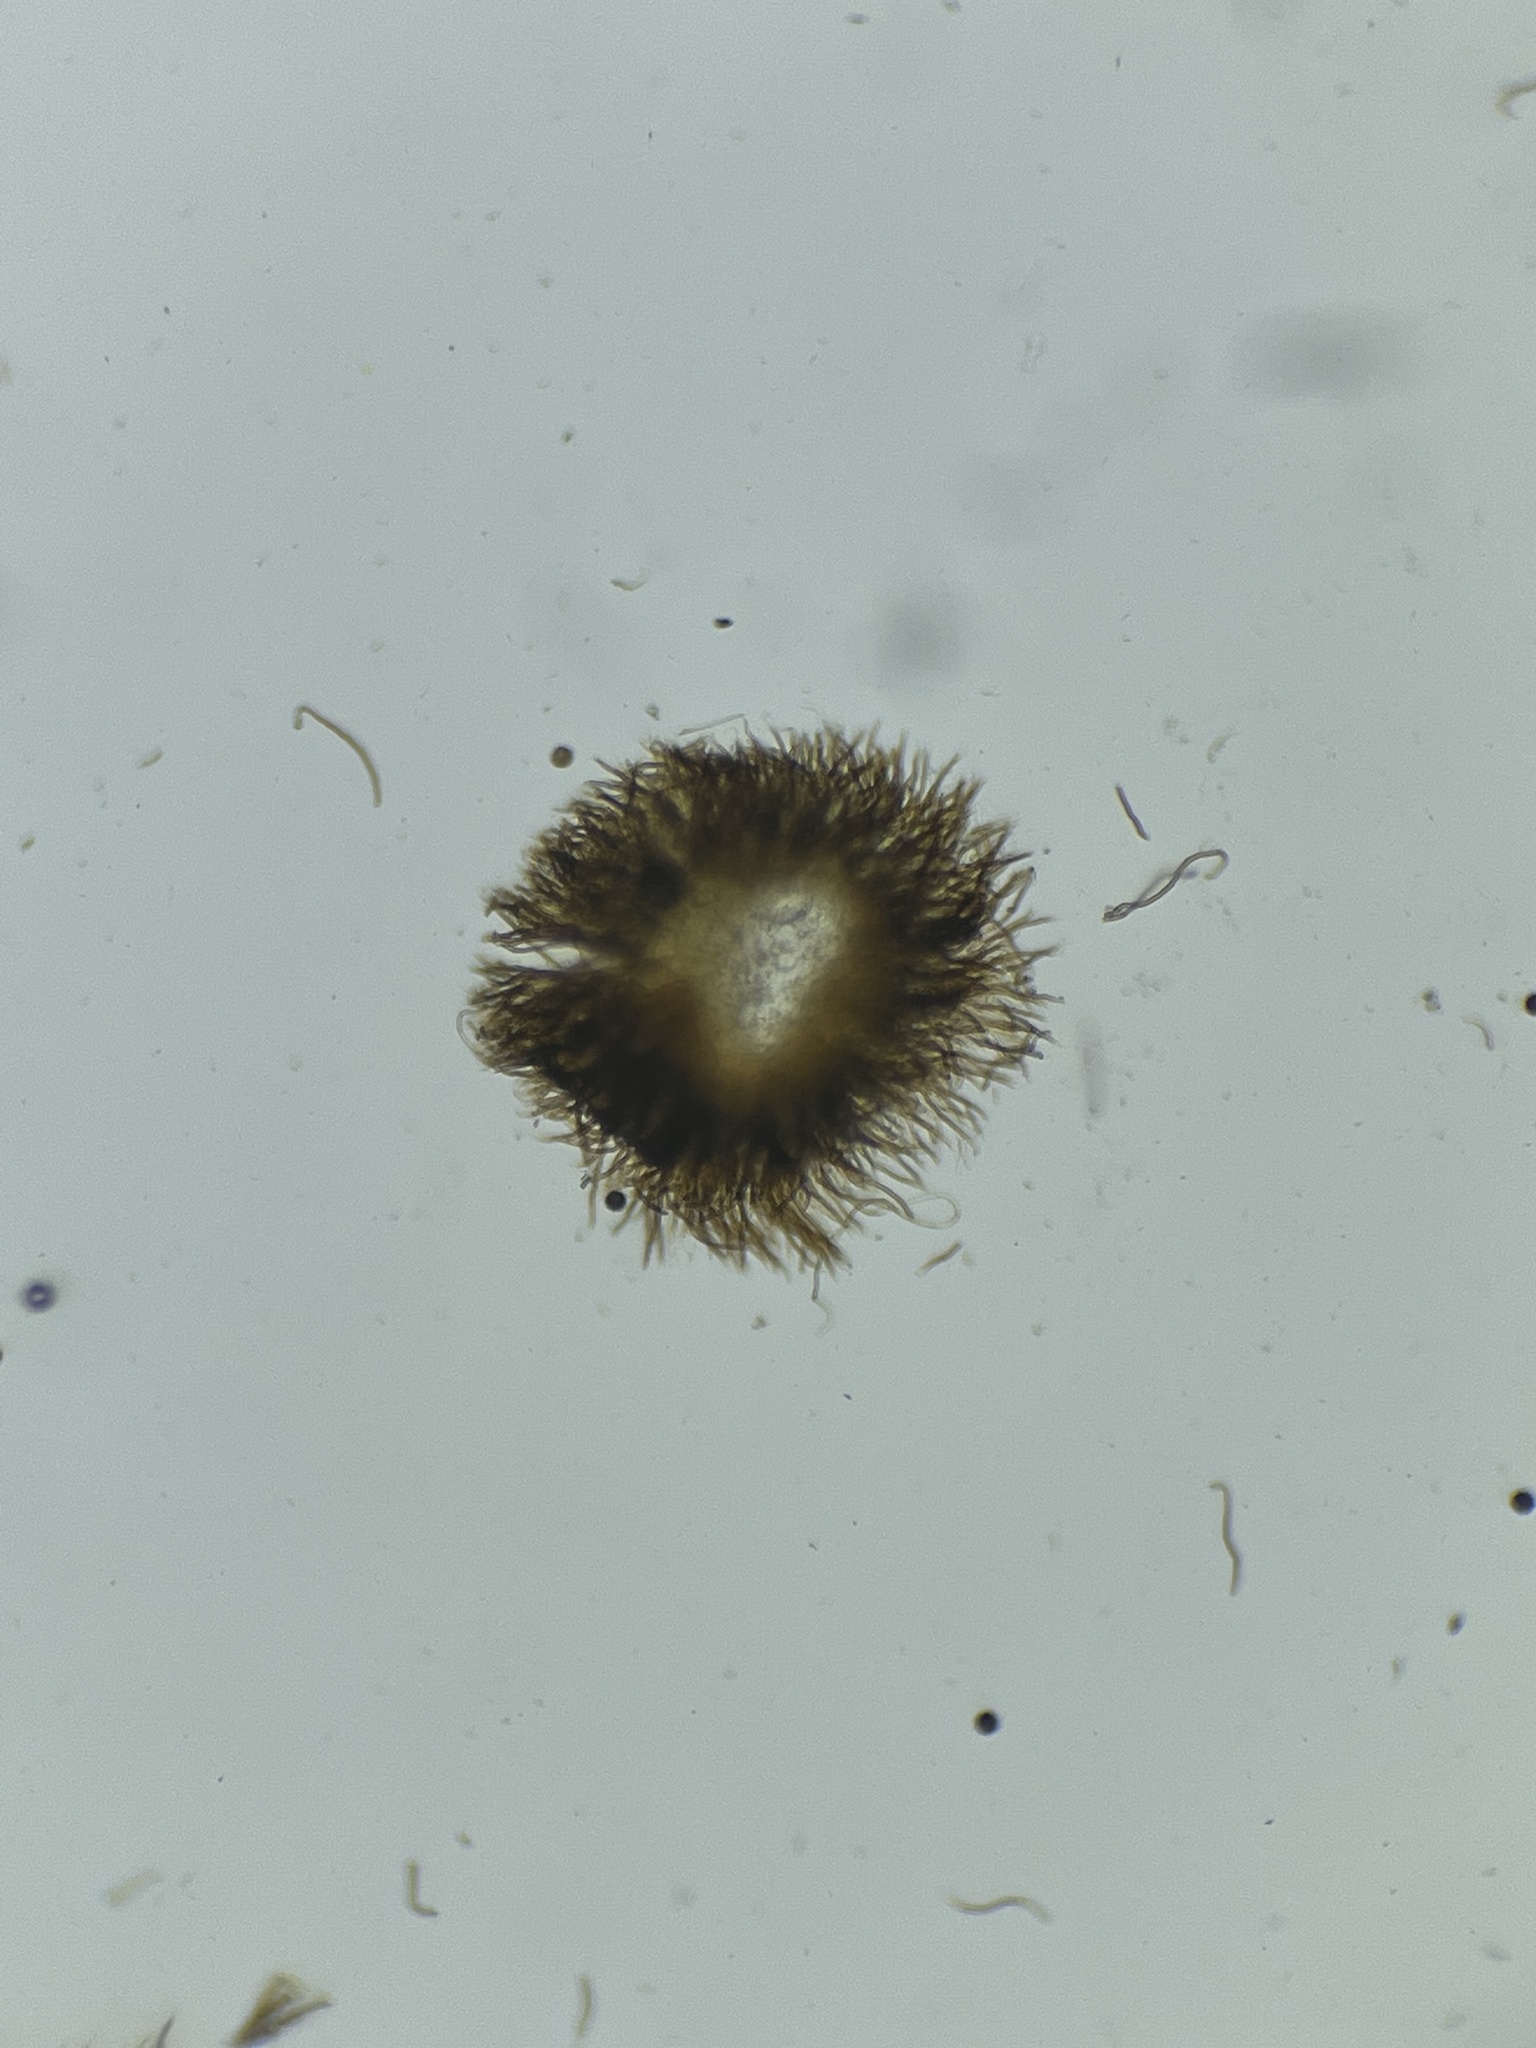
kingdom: Fungi
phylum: Basidiomycota
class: Agaricomycetes
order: Agaricales
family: Niaceae
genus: Merismodes
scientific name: Merismodes fasciculata
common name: Crowded cuplet
